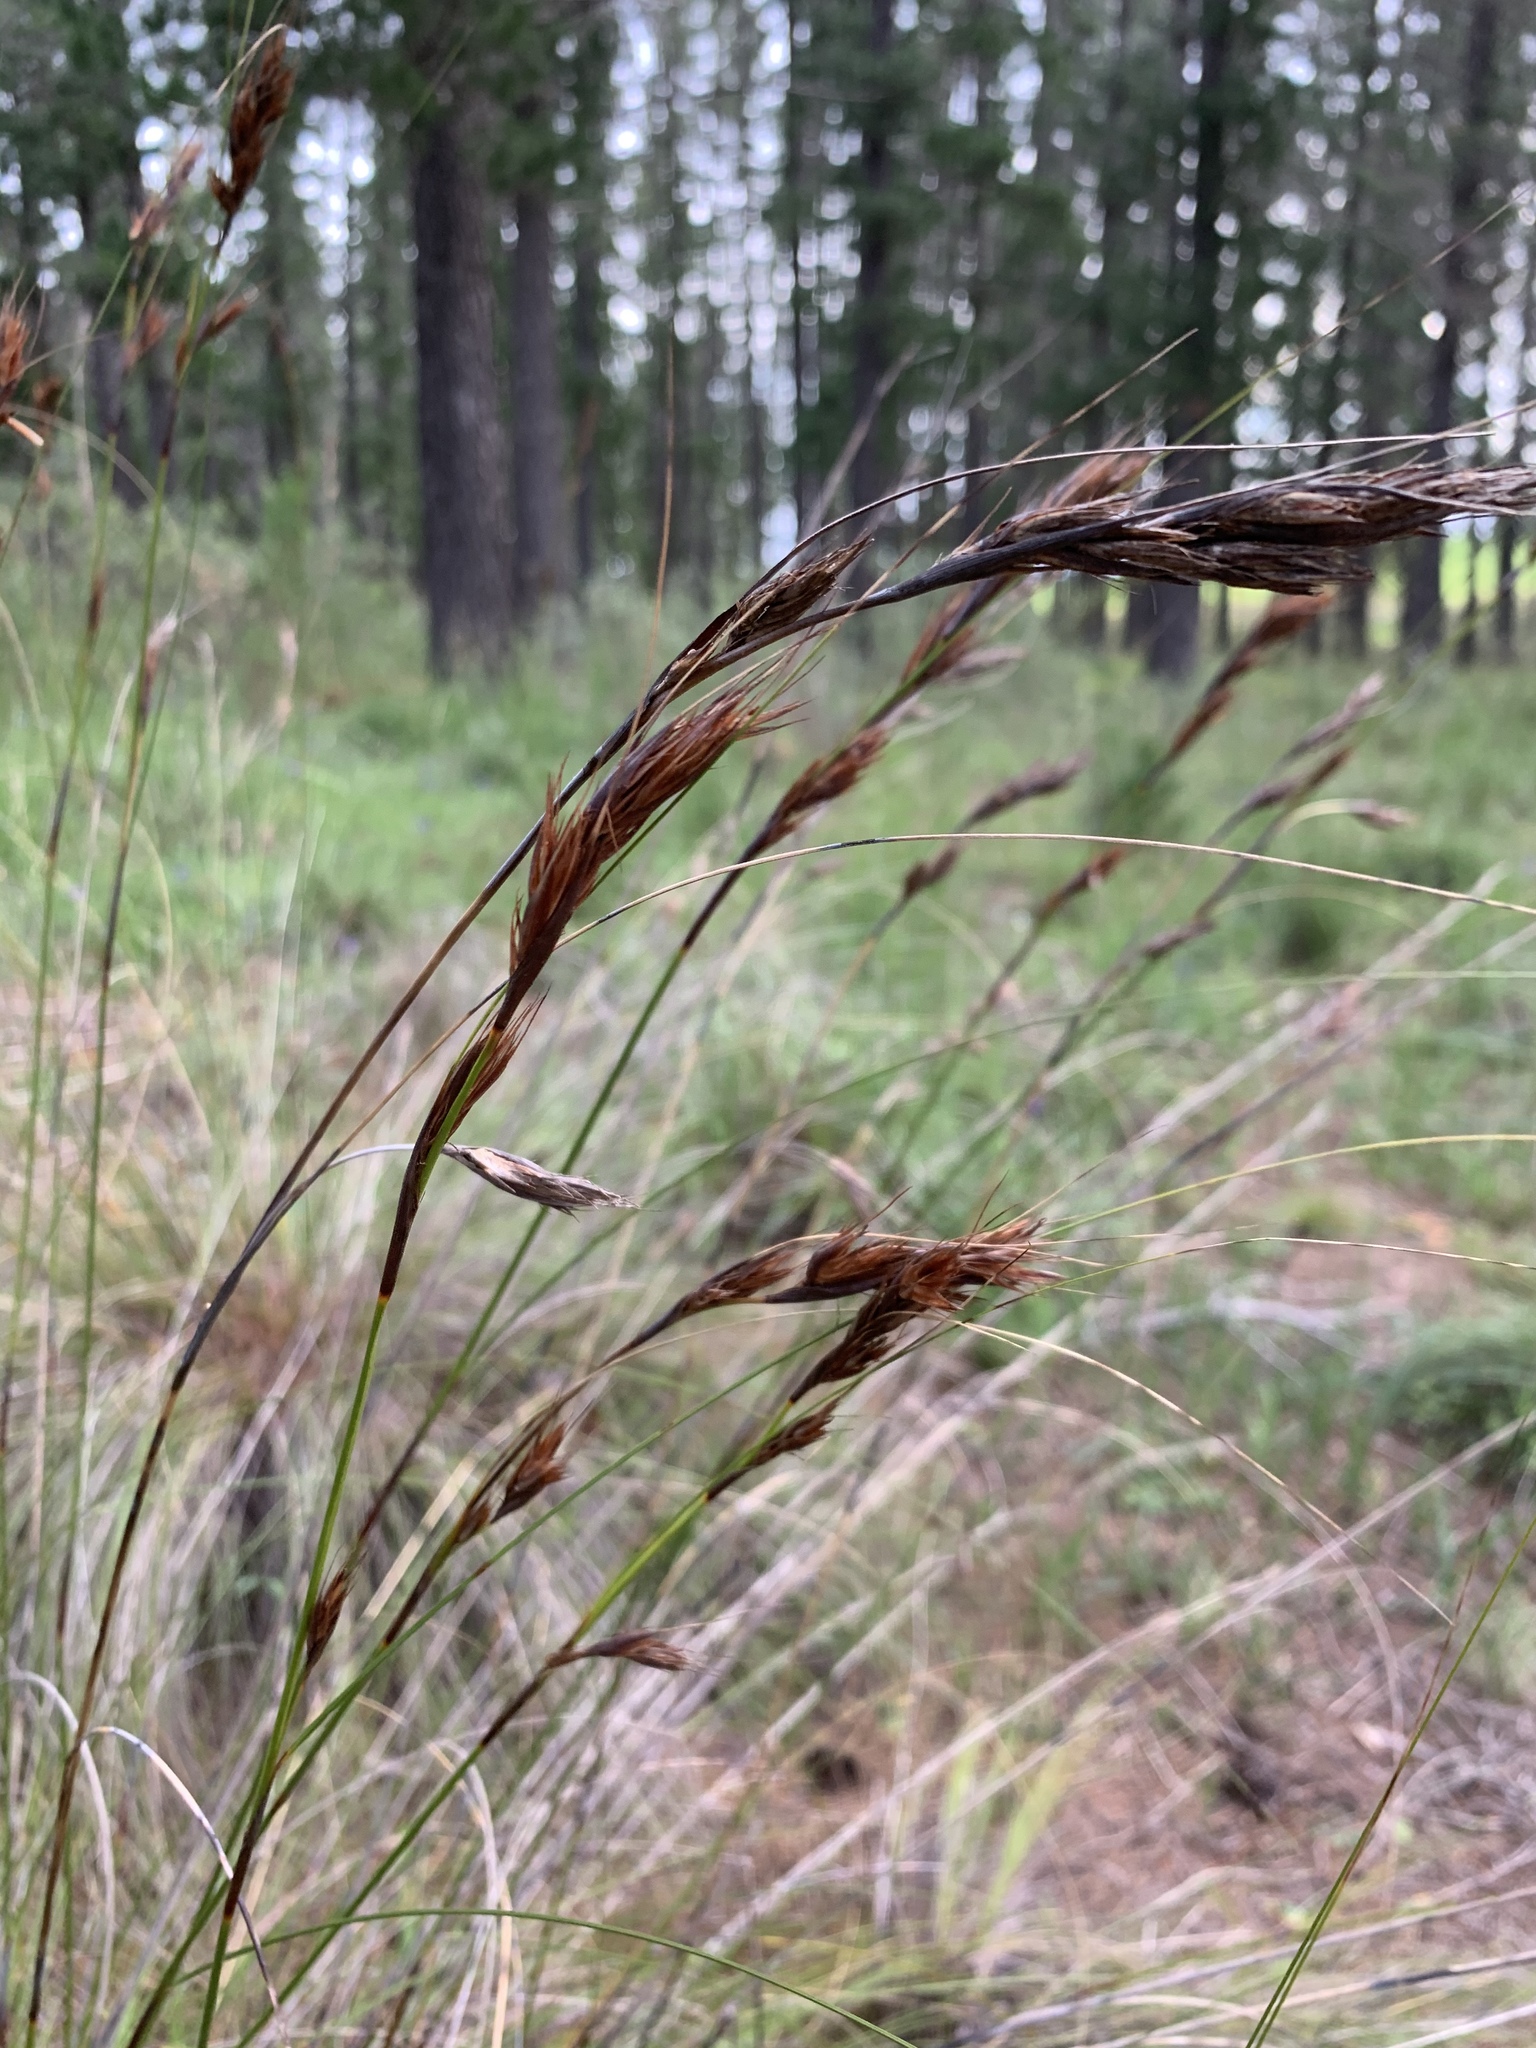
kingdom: Plantae
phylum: Tracheophyta
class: Liliopsida
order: Poales
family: Cyperaceae
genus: Tetraria
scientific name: Tetraria ustulata
